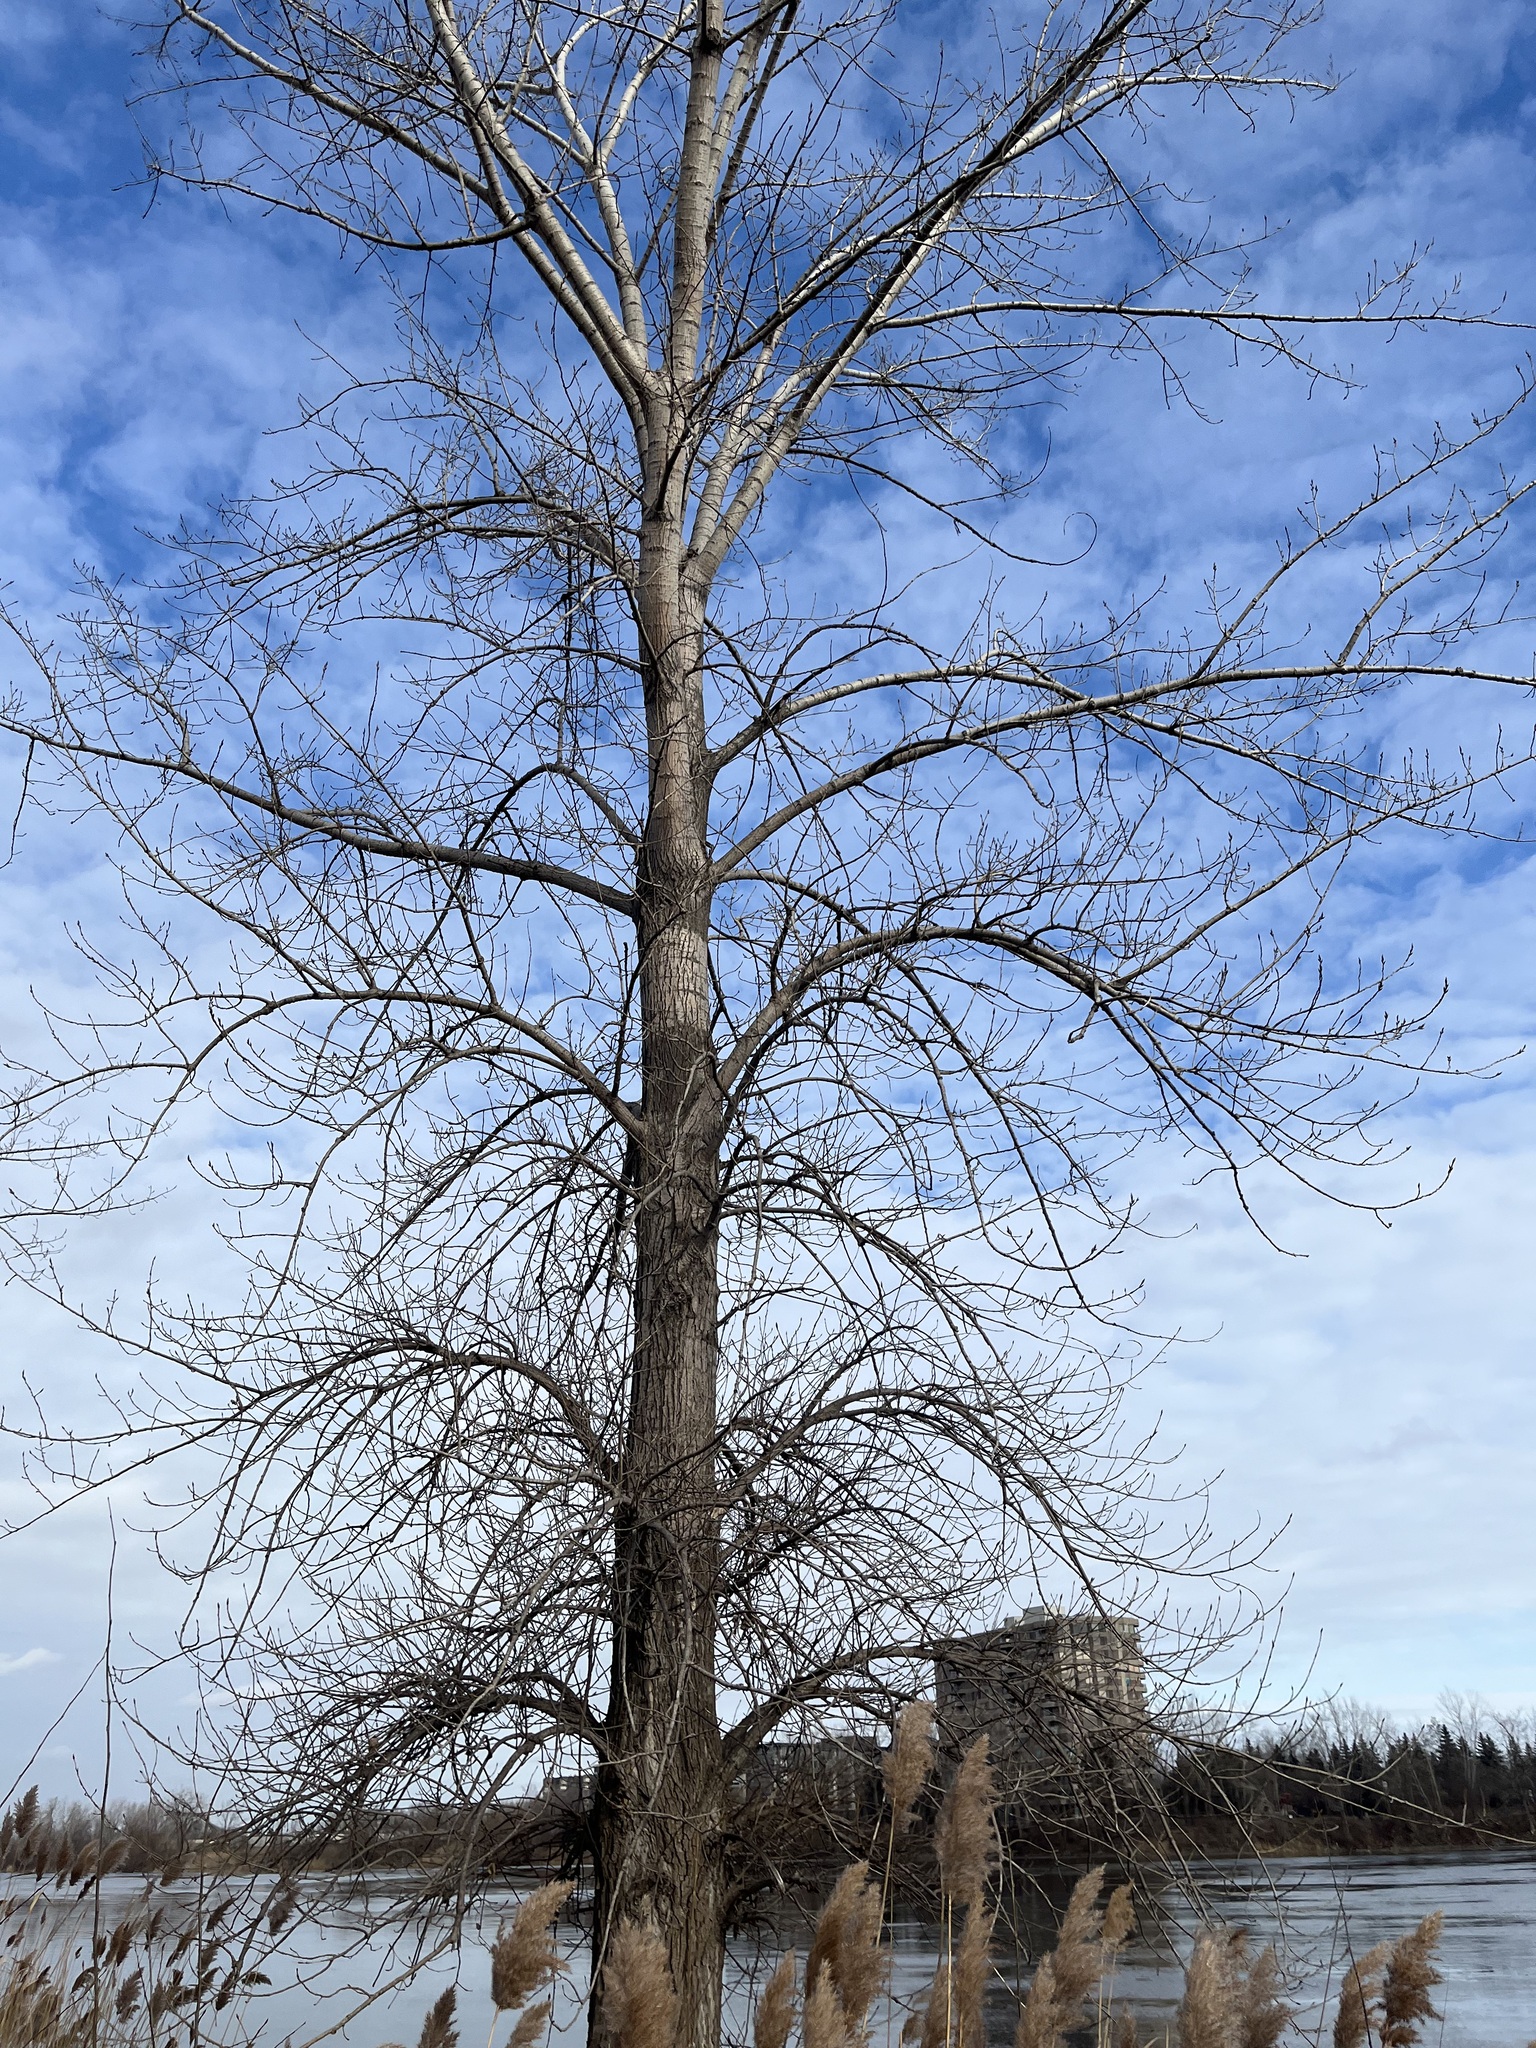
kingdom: Plantae
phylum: Tracheophyta
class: Magnoliopsida
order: Malpighiales
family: Salicaceae
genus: Populus
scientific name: Populus deltoides
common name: Eastern cottonwood
